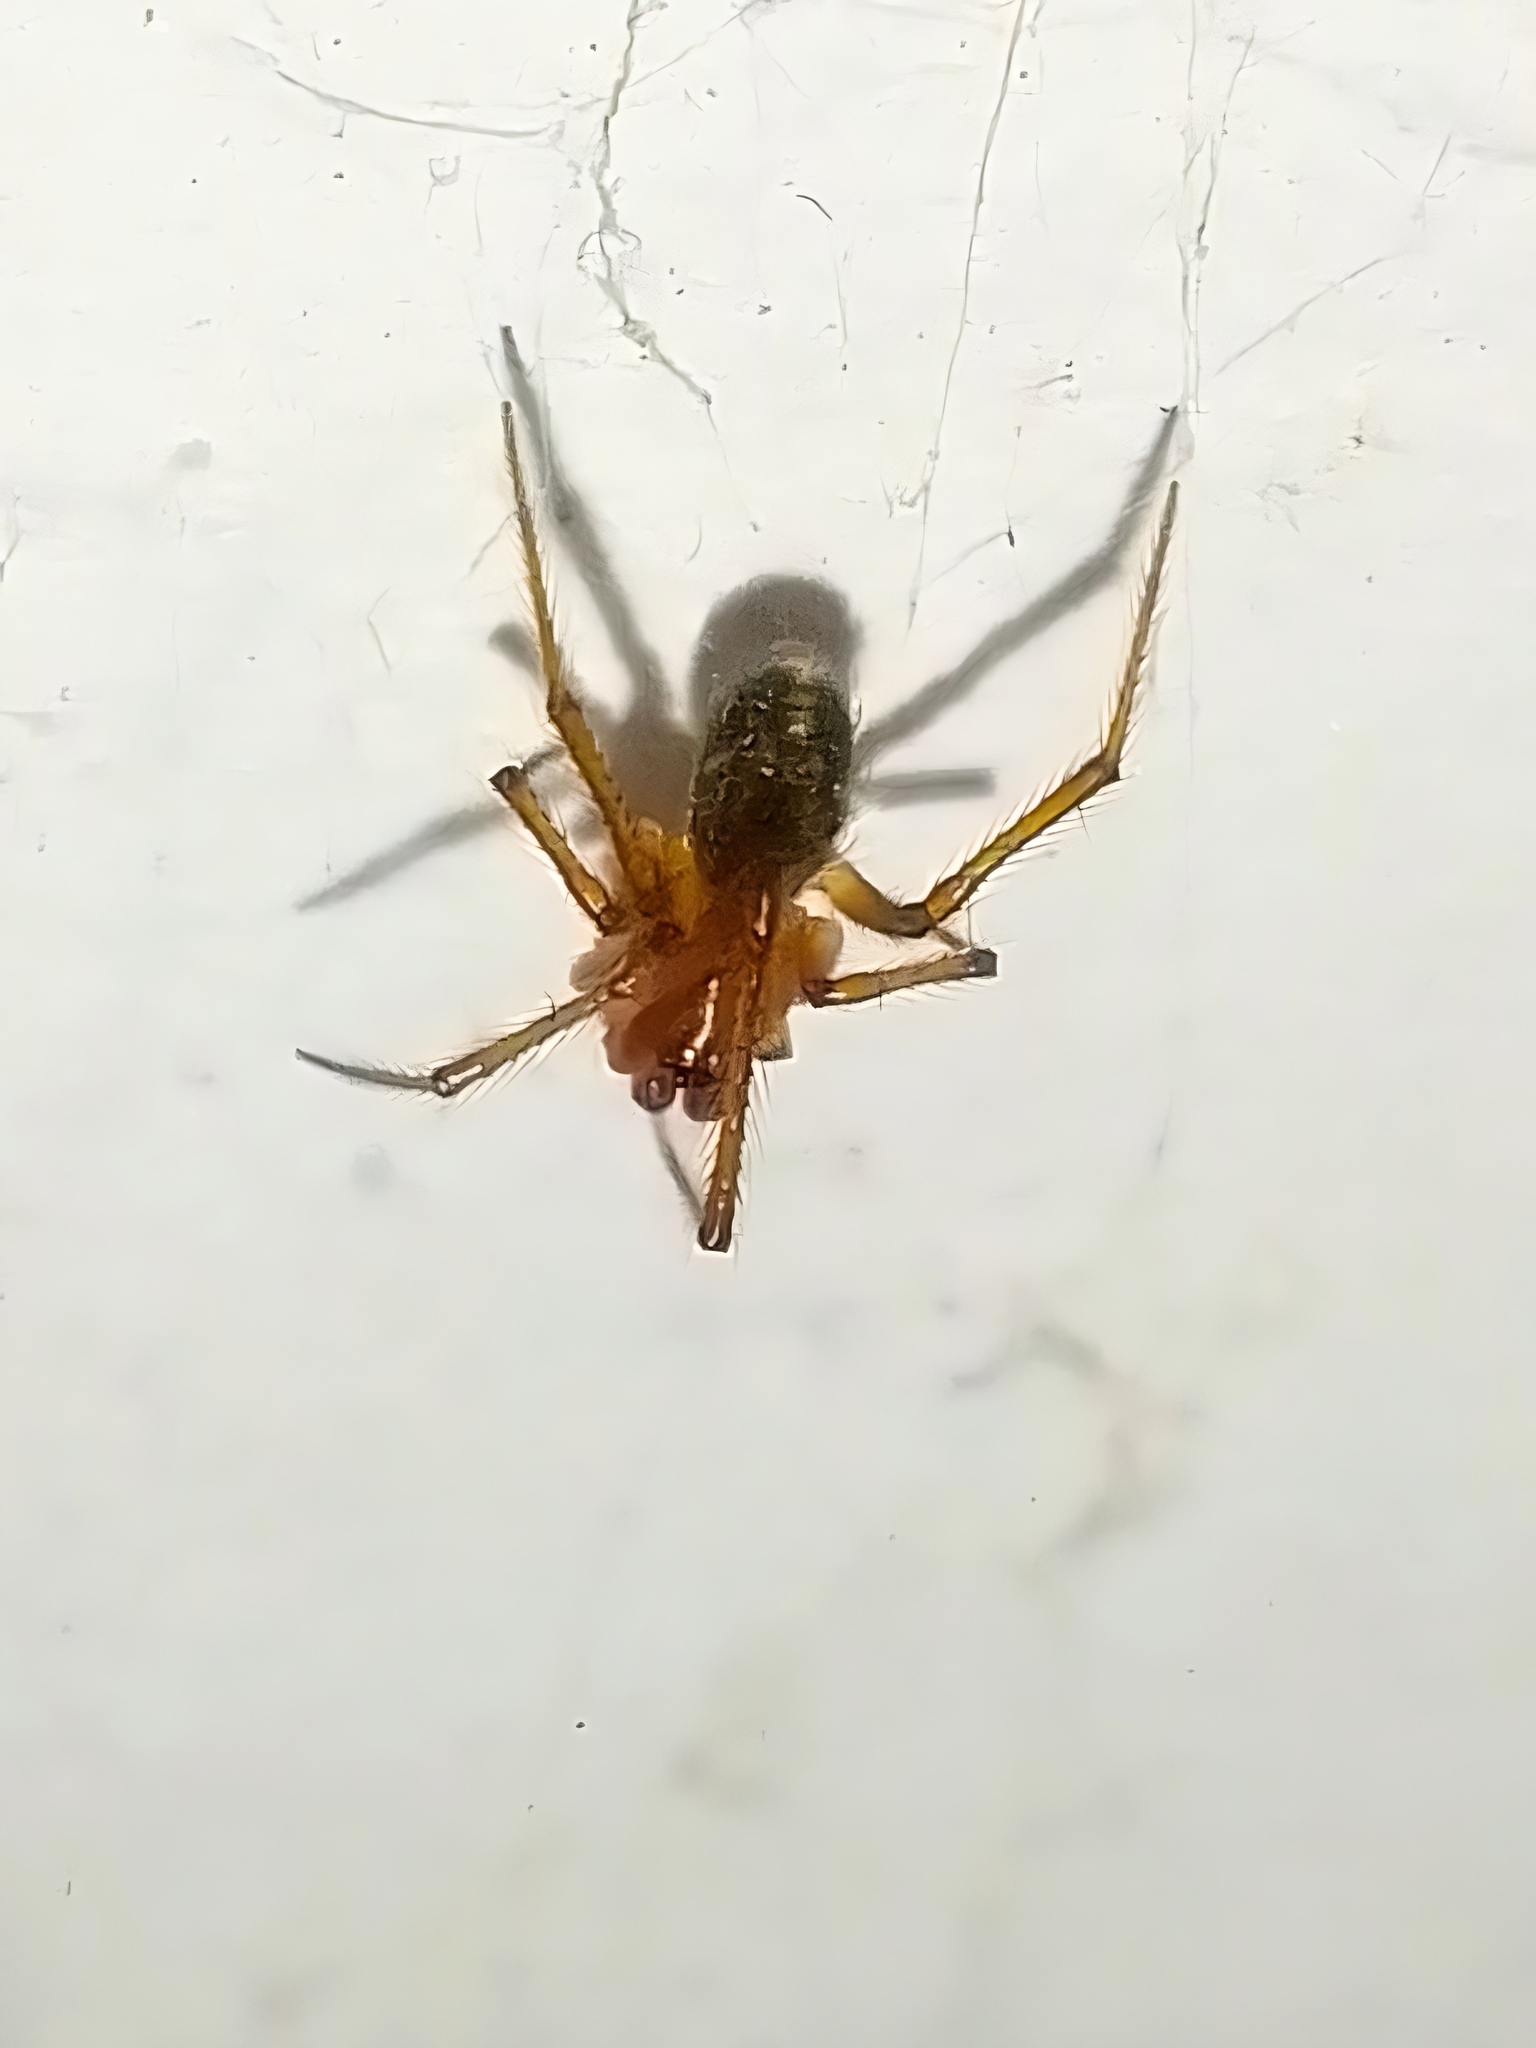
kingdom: Animalia
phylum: Arthropoda
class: Arachnida
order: Araneae
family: Theridiidae
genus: Nesticodes
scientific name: Nesticodes rufipes
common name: Cobweb spiders
